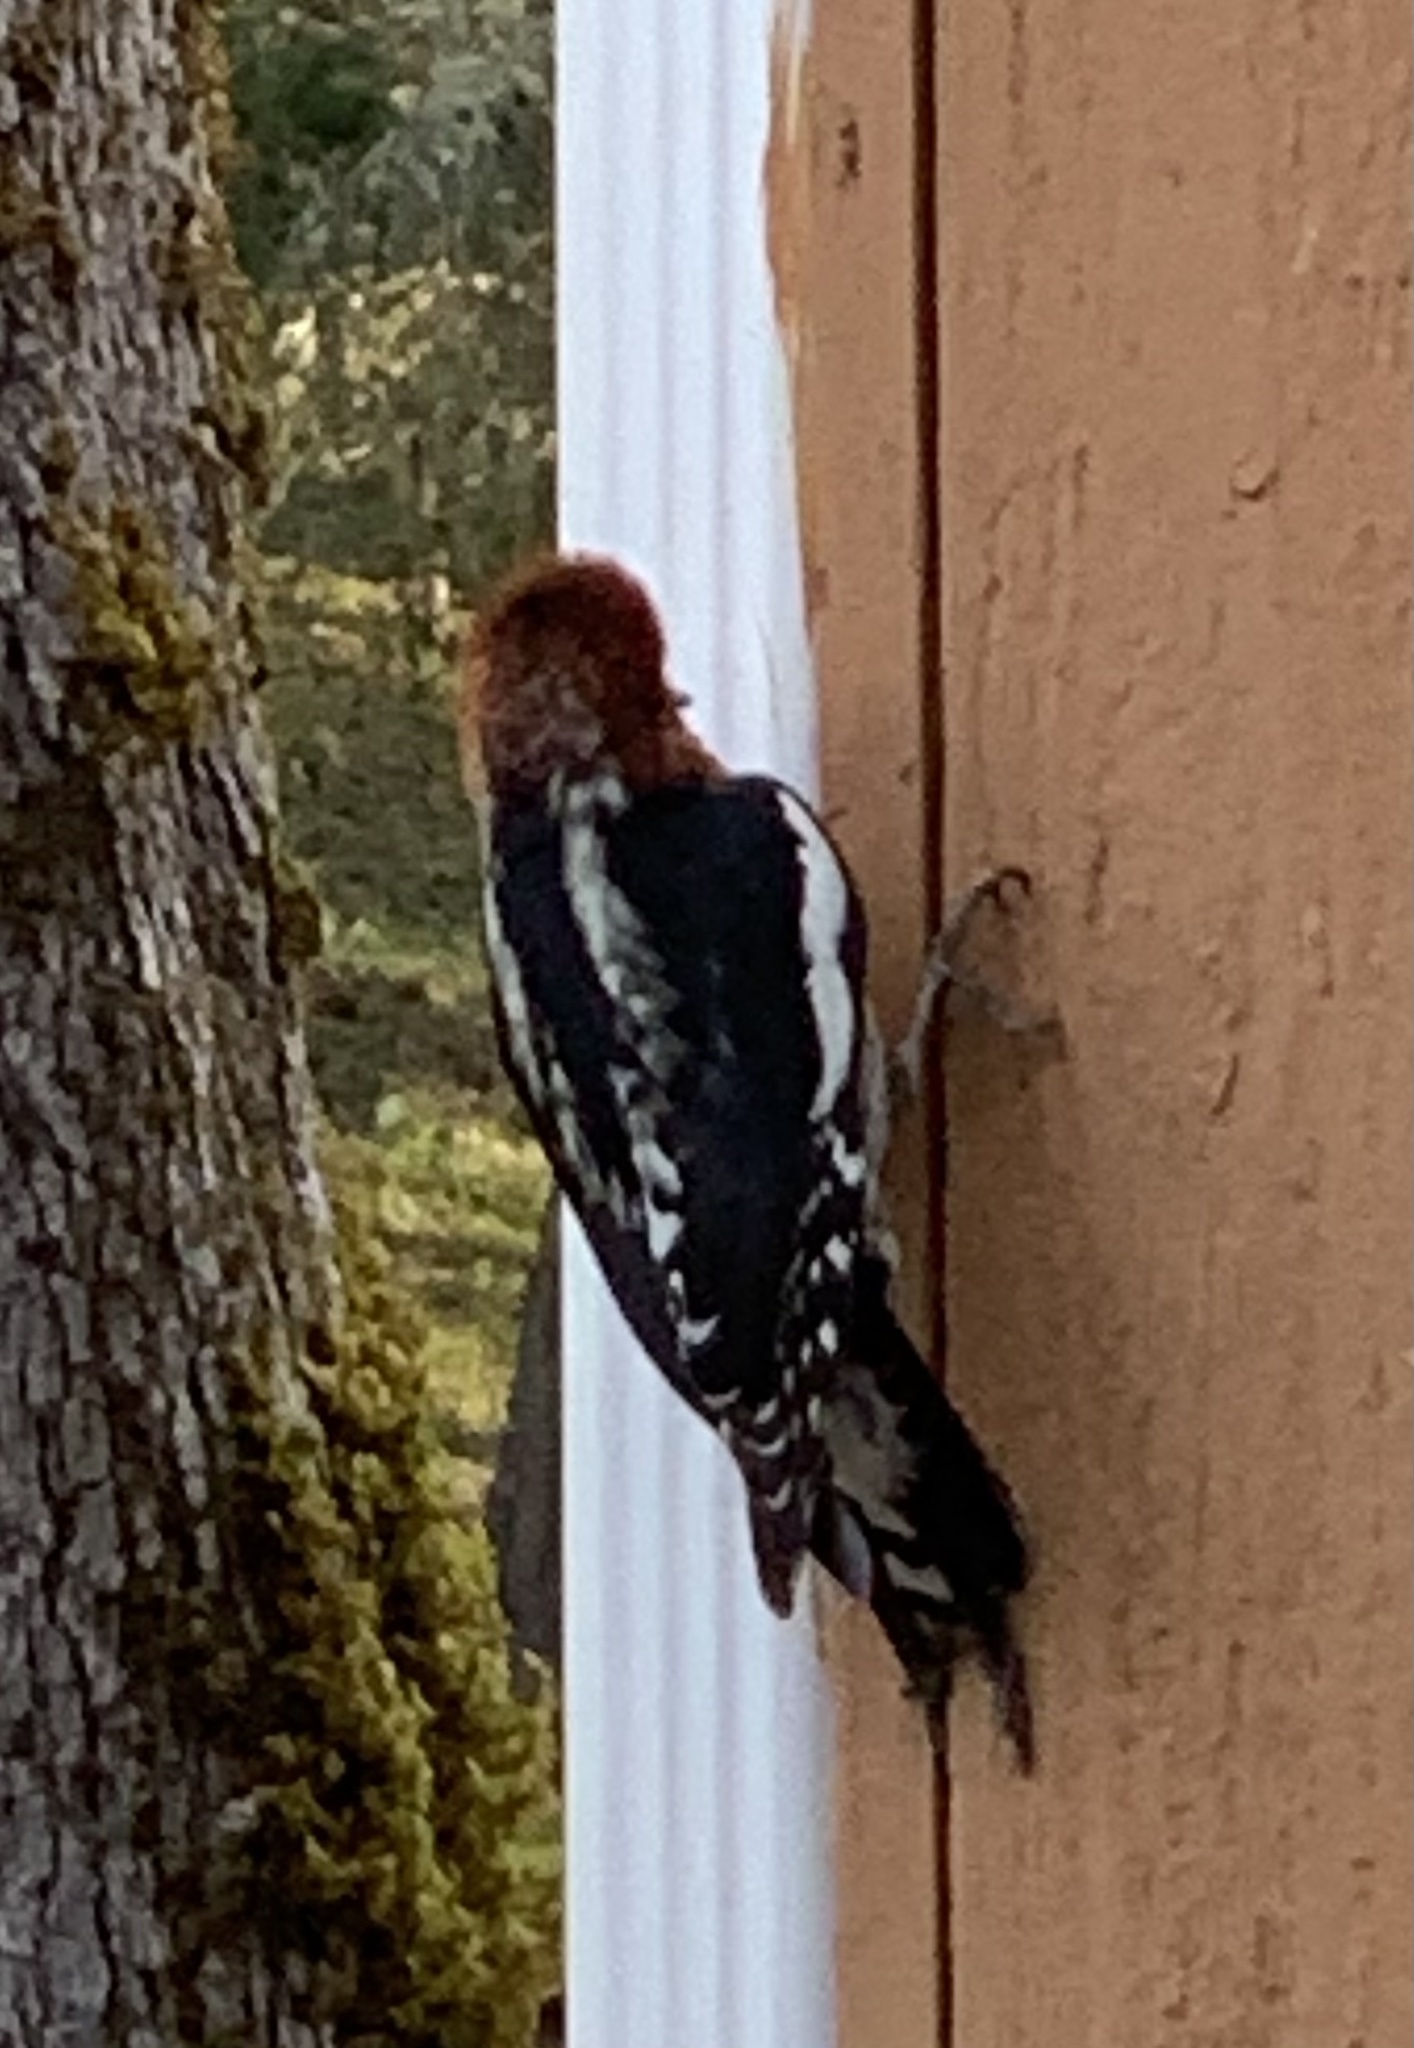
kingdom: Animalia
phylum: Chordata
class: Aves
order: Piciformes
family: Picidae
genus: Sphyrapicus
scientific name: Sphyrapicus ruber
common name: Red-breasted sapsucker
